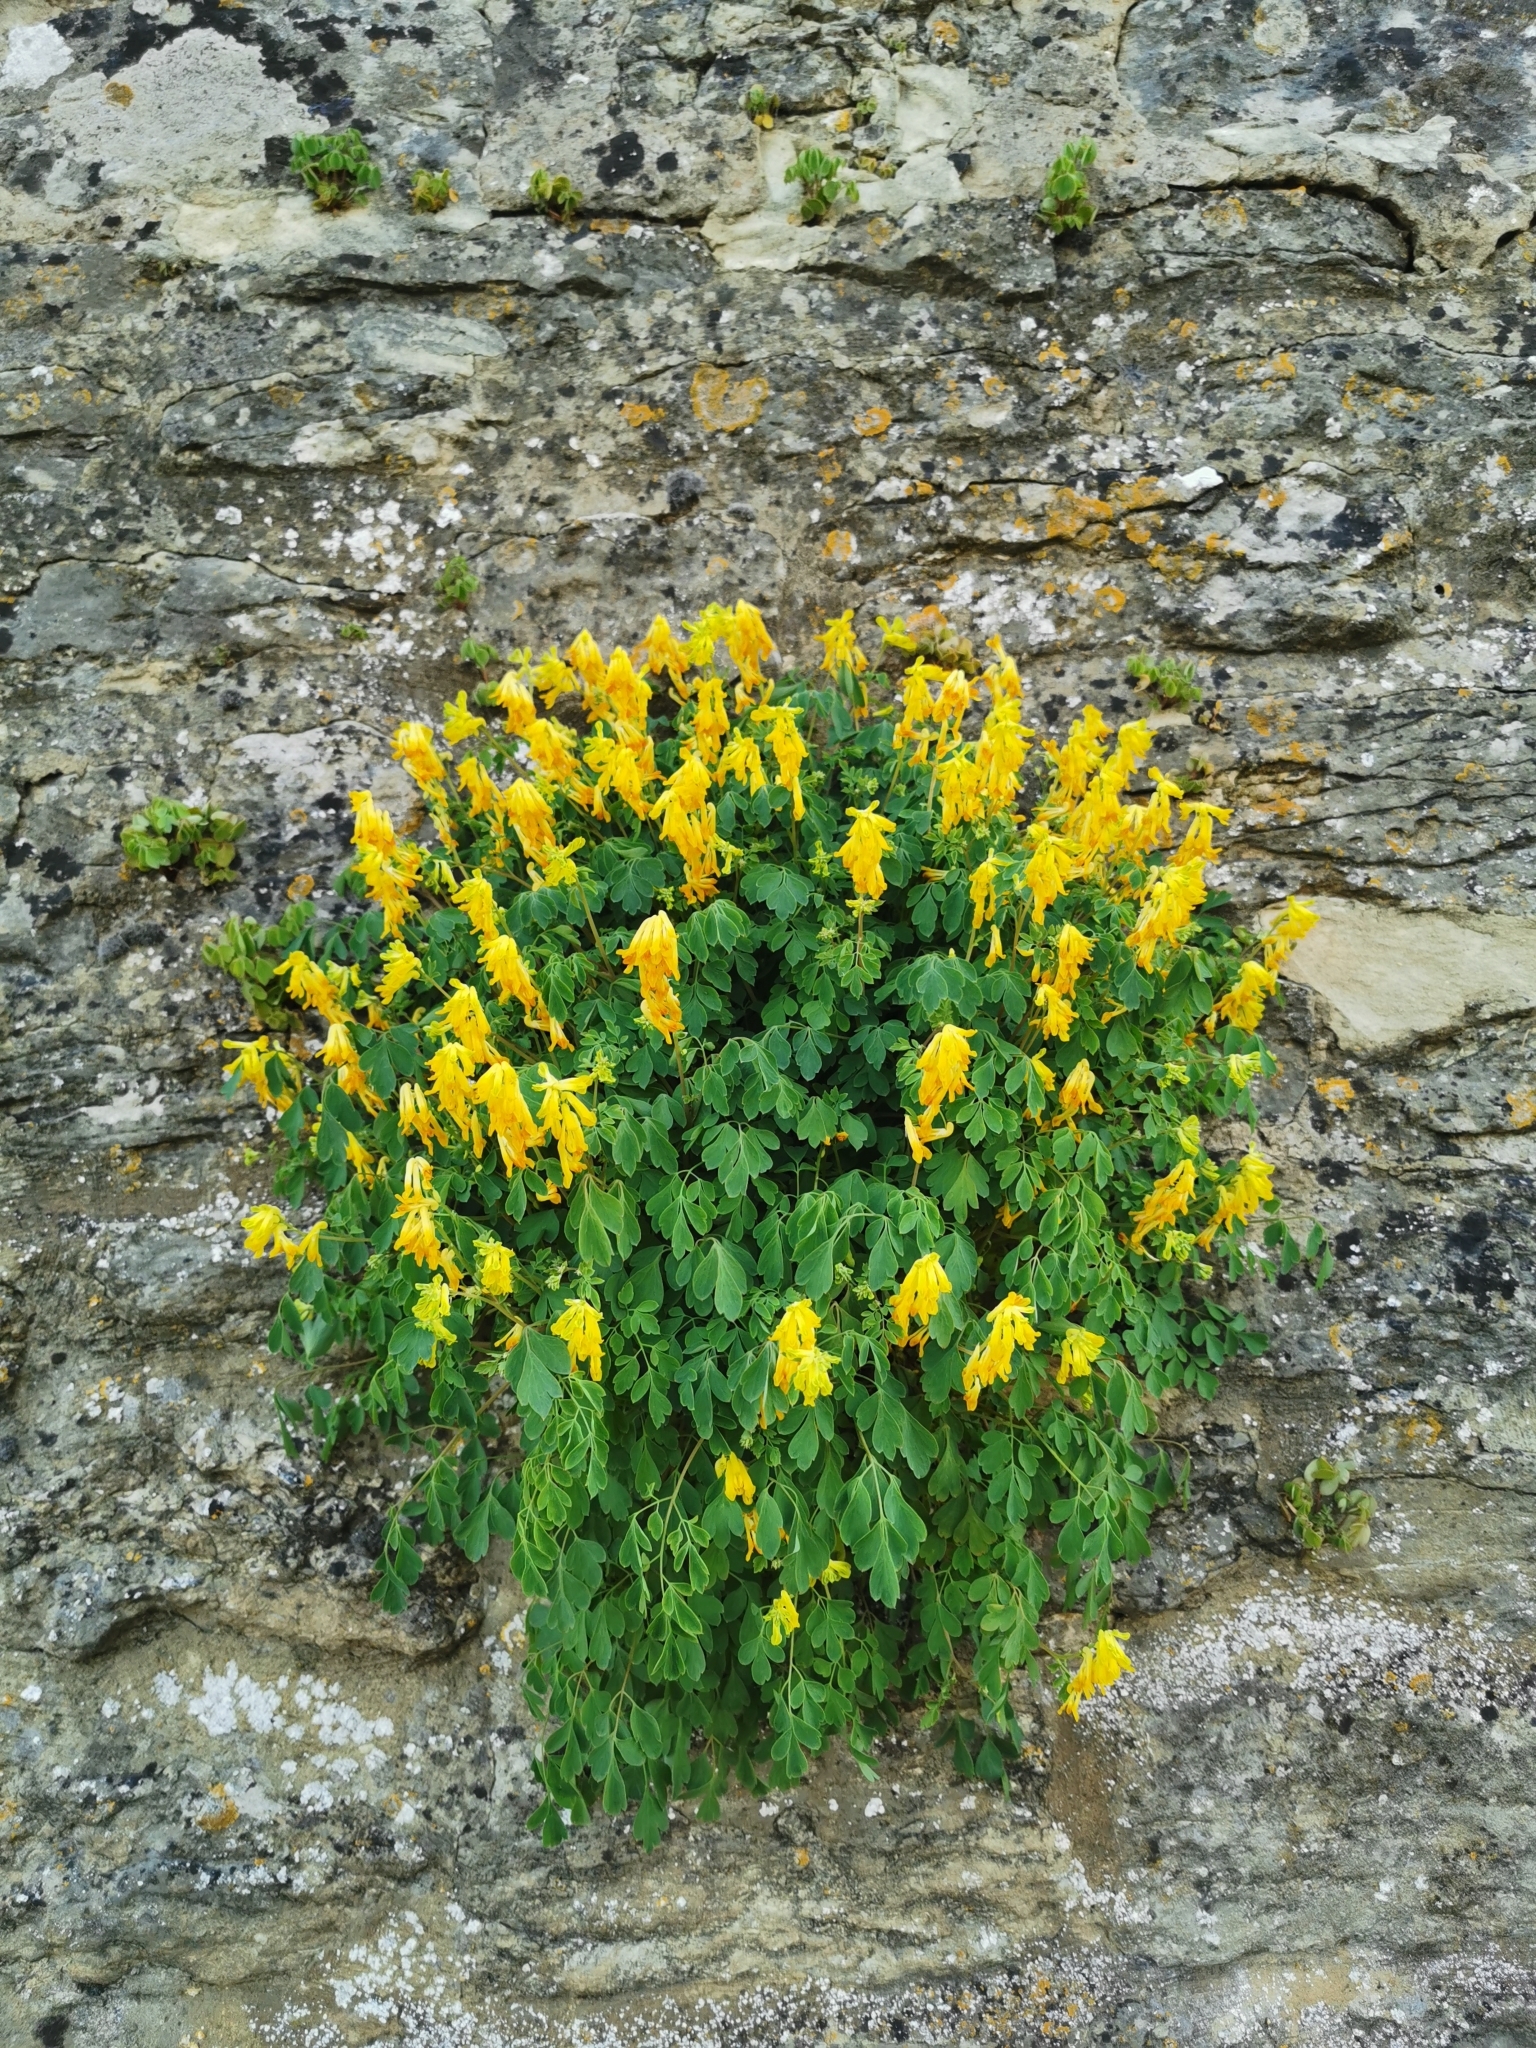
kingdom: Plantae
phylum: Tracheophyta
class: Magnoliopsida
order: Ranunculales
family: Papaveraceae
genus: Pseudofumaria
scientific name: Pseudofumaria lutea
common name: Yellow corydalis
